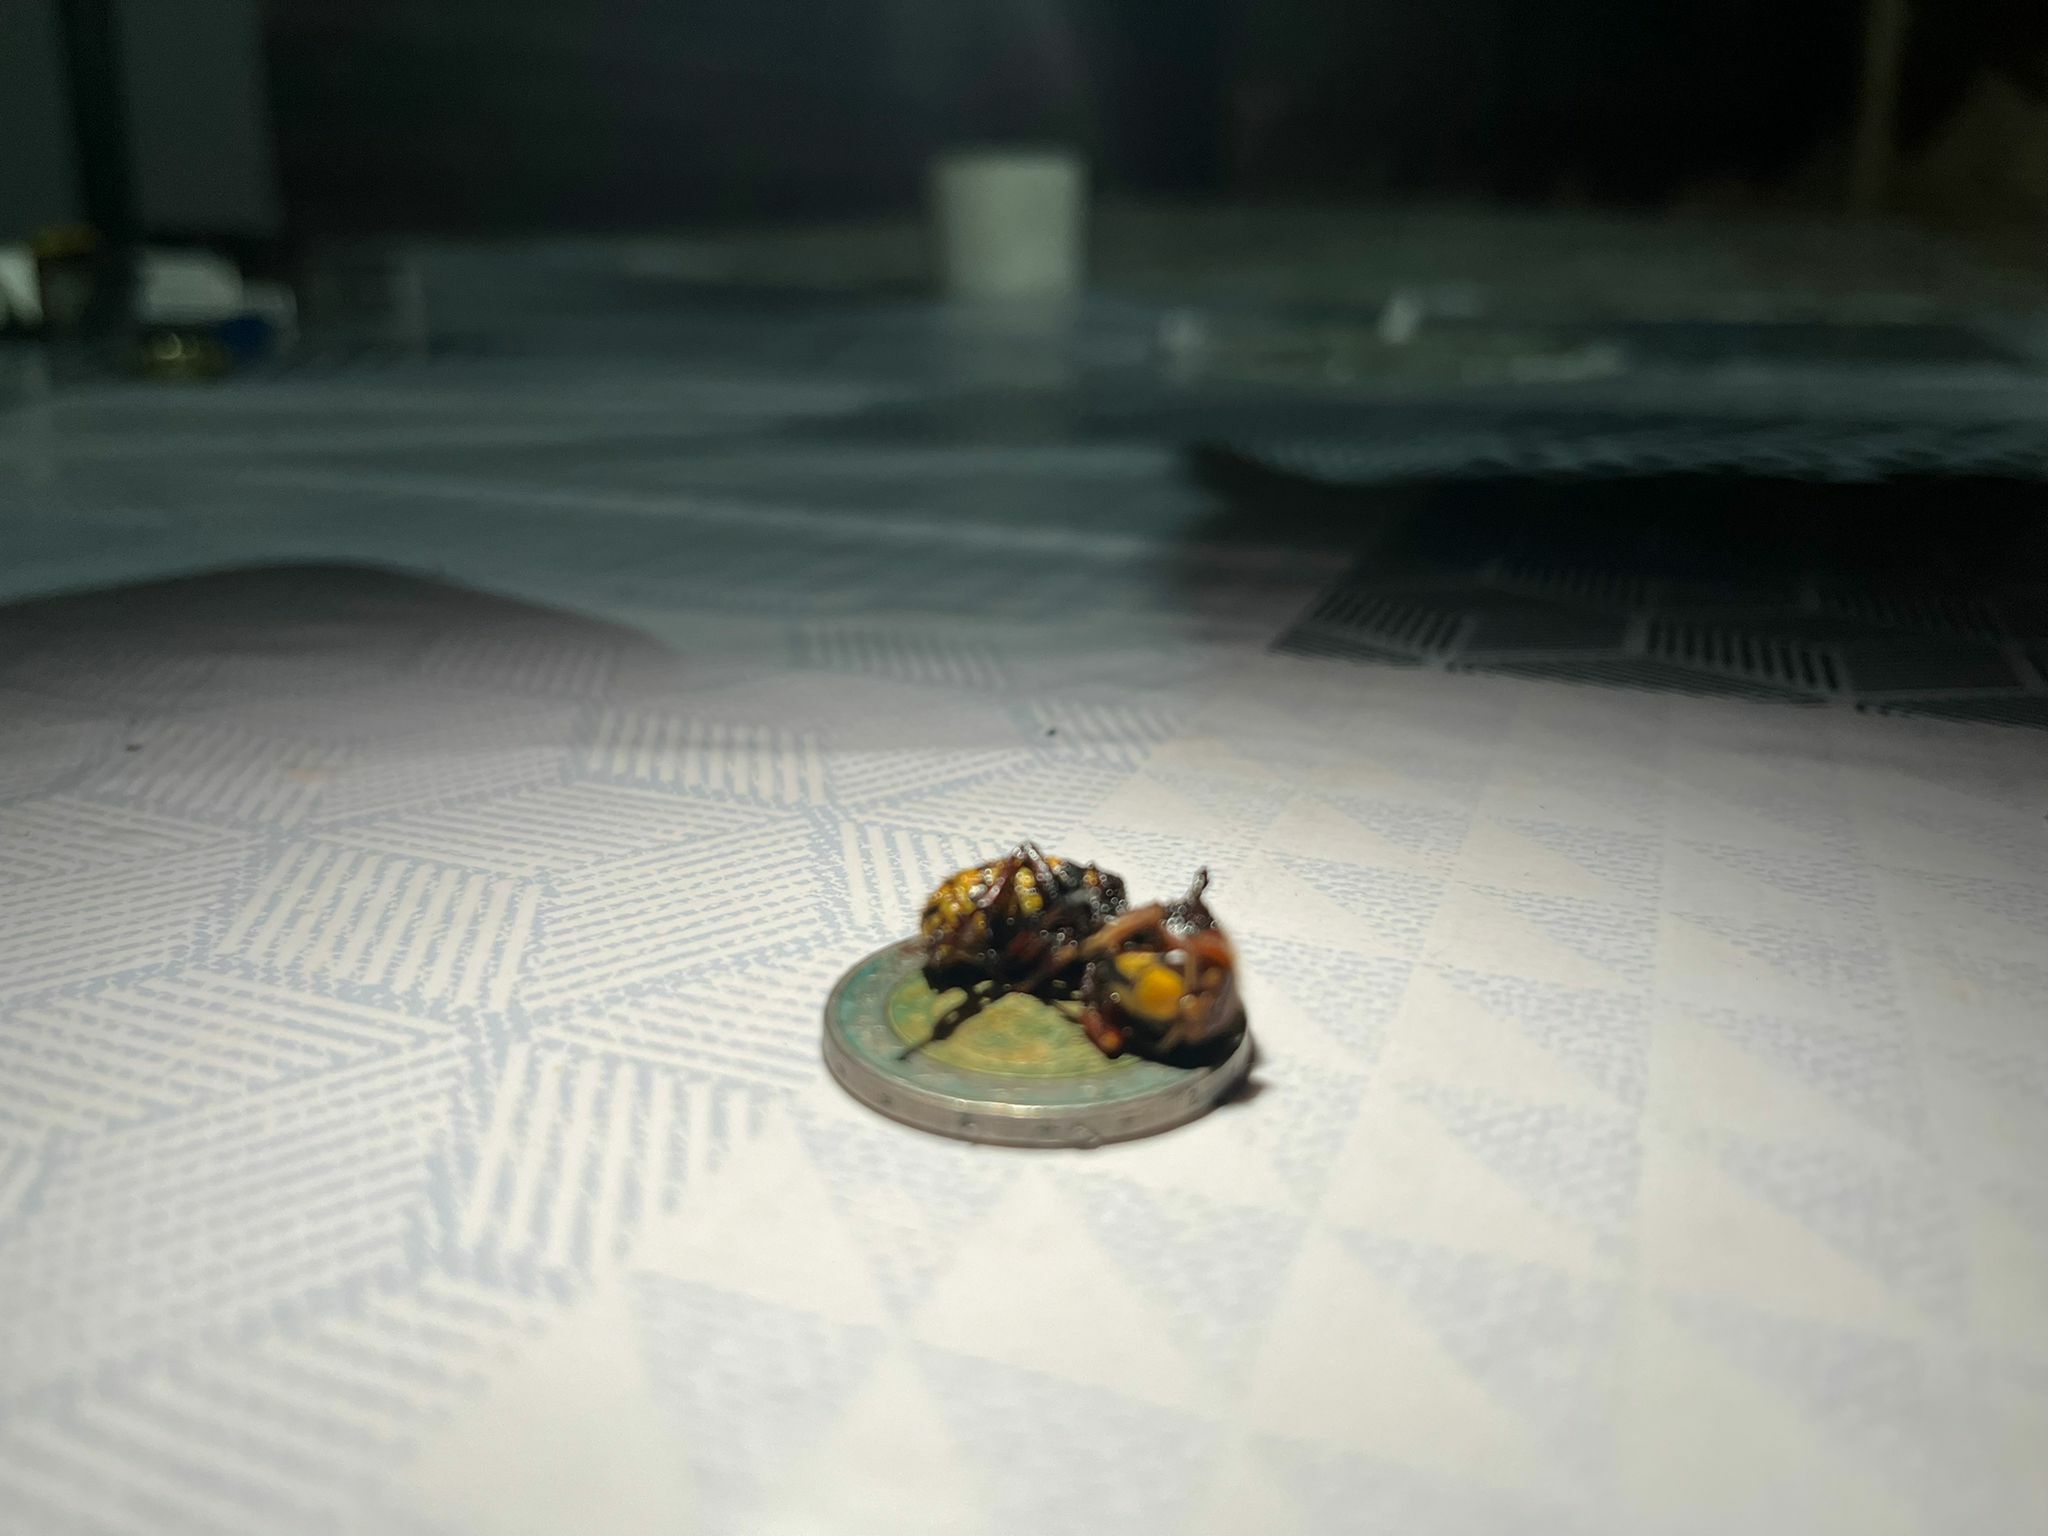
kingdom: Animalia
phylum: Arthropoda
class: Insecta
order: Hymenoptera
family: Vespidae
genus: Vespa
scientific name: Vespa crabro
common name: Hornet
